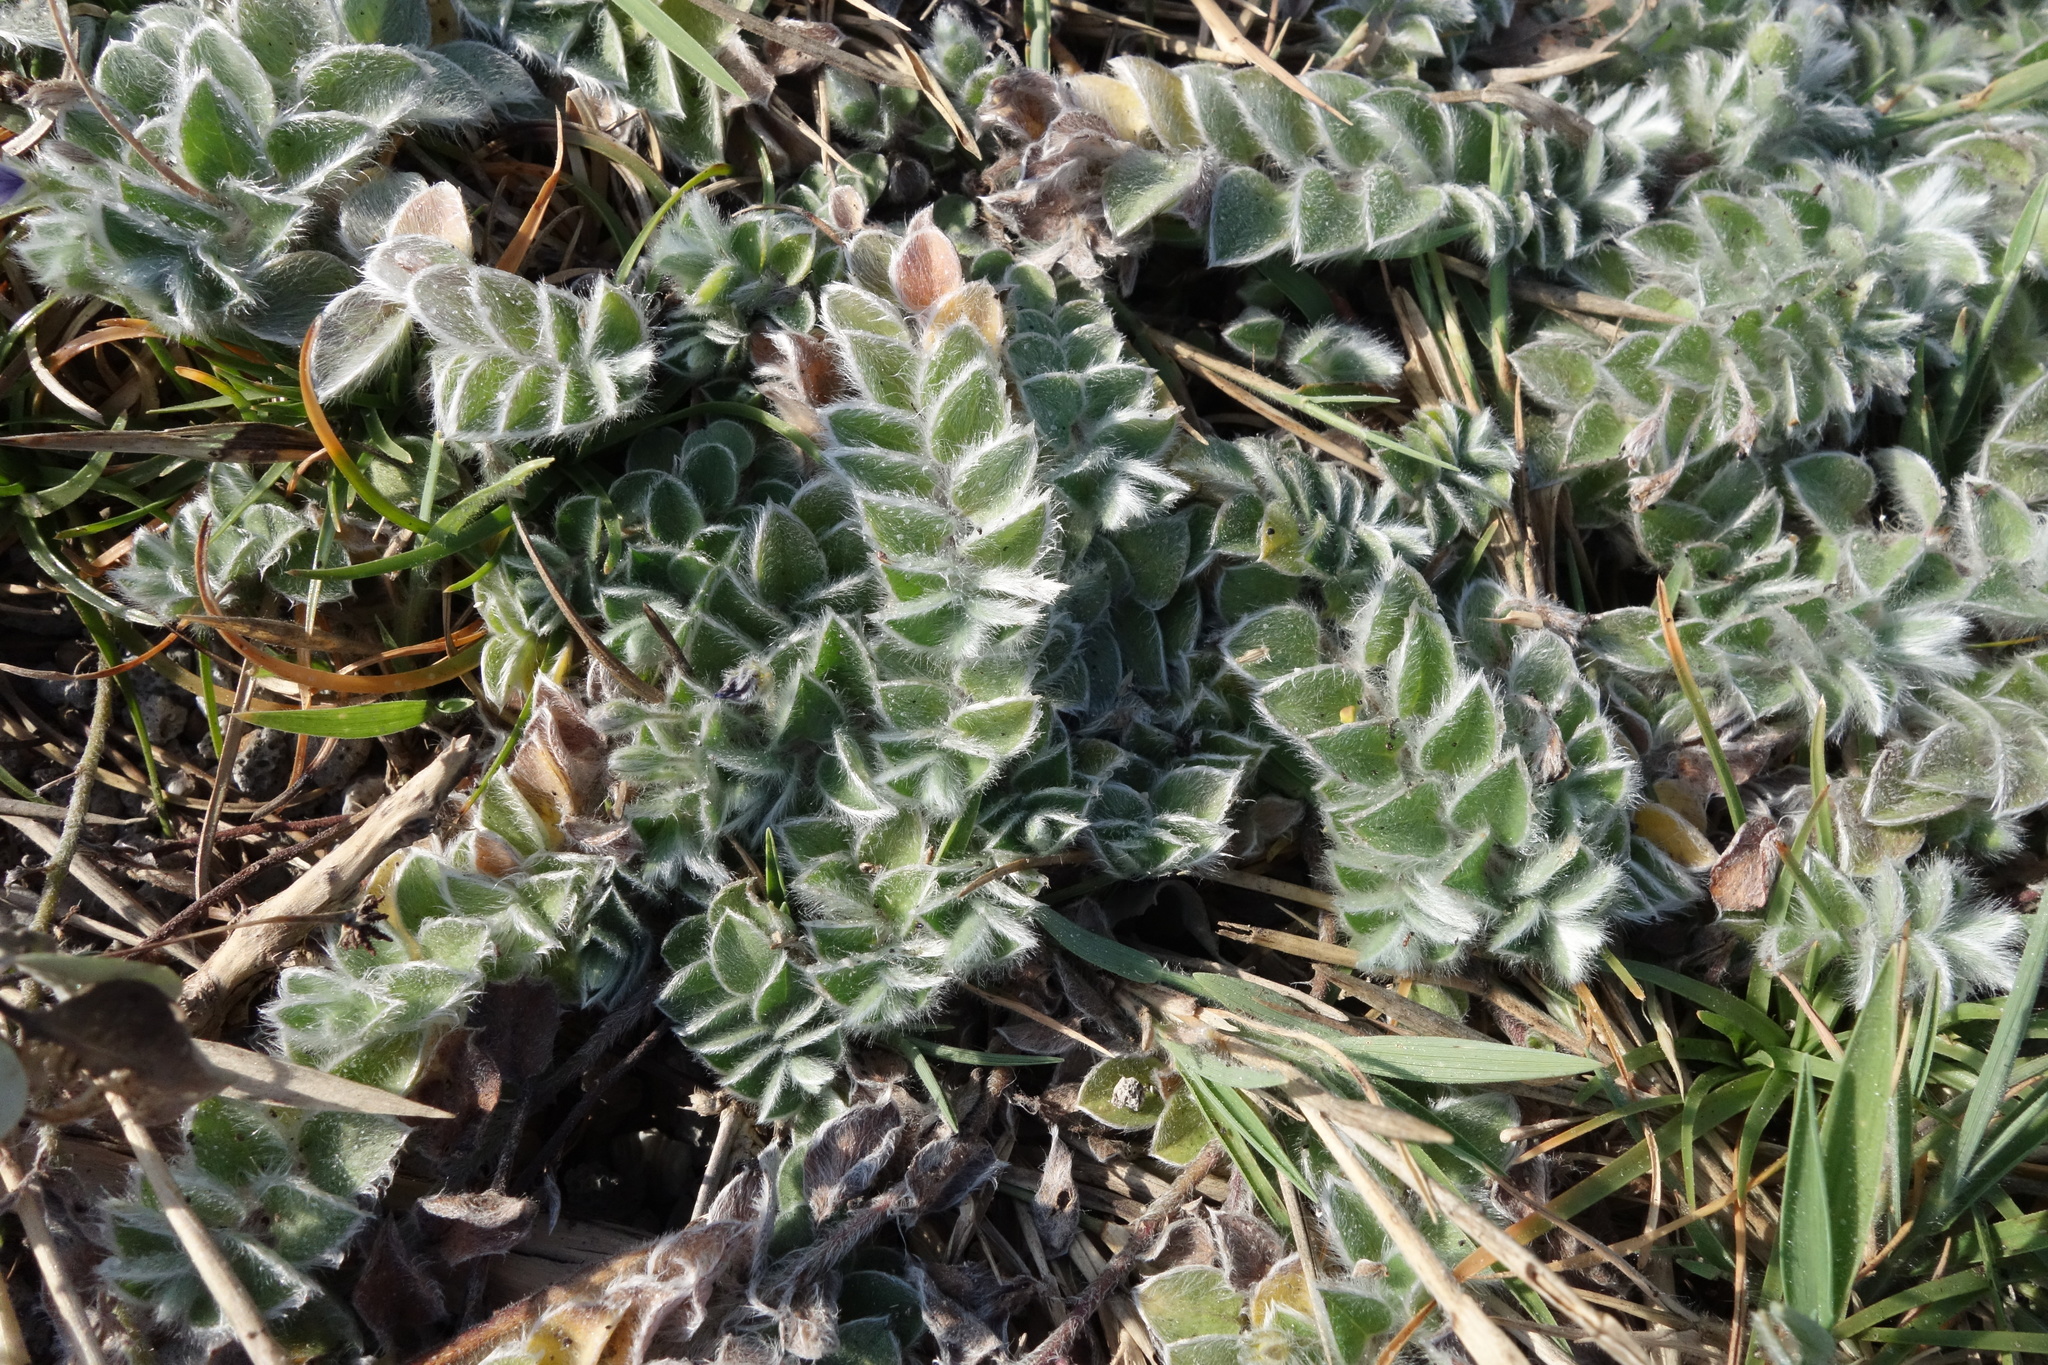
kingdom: Plantae
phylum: Tracheophyta
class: Magnoliopsida
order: Solanales
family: Convolvulaceae
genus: Evolvulus
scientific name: Evolvulus alsinoides
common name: Slender dwarf morning-glory
